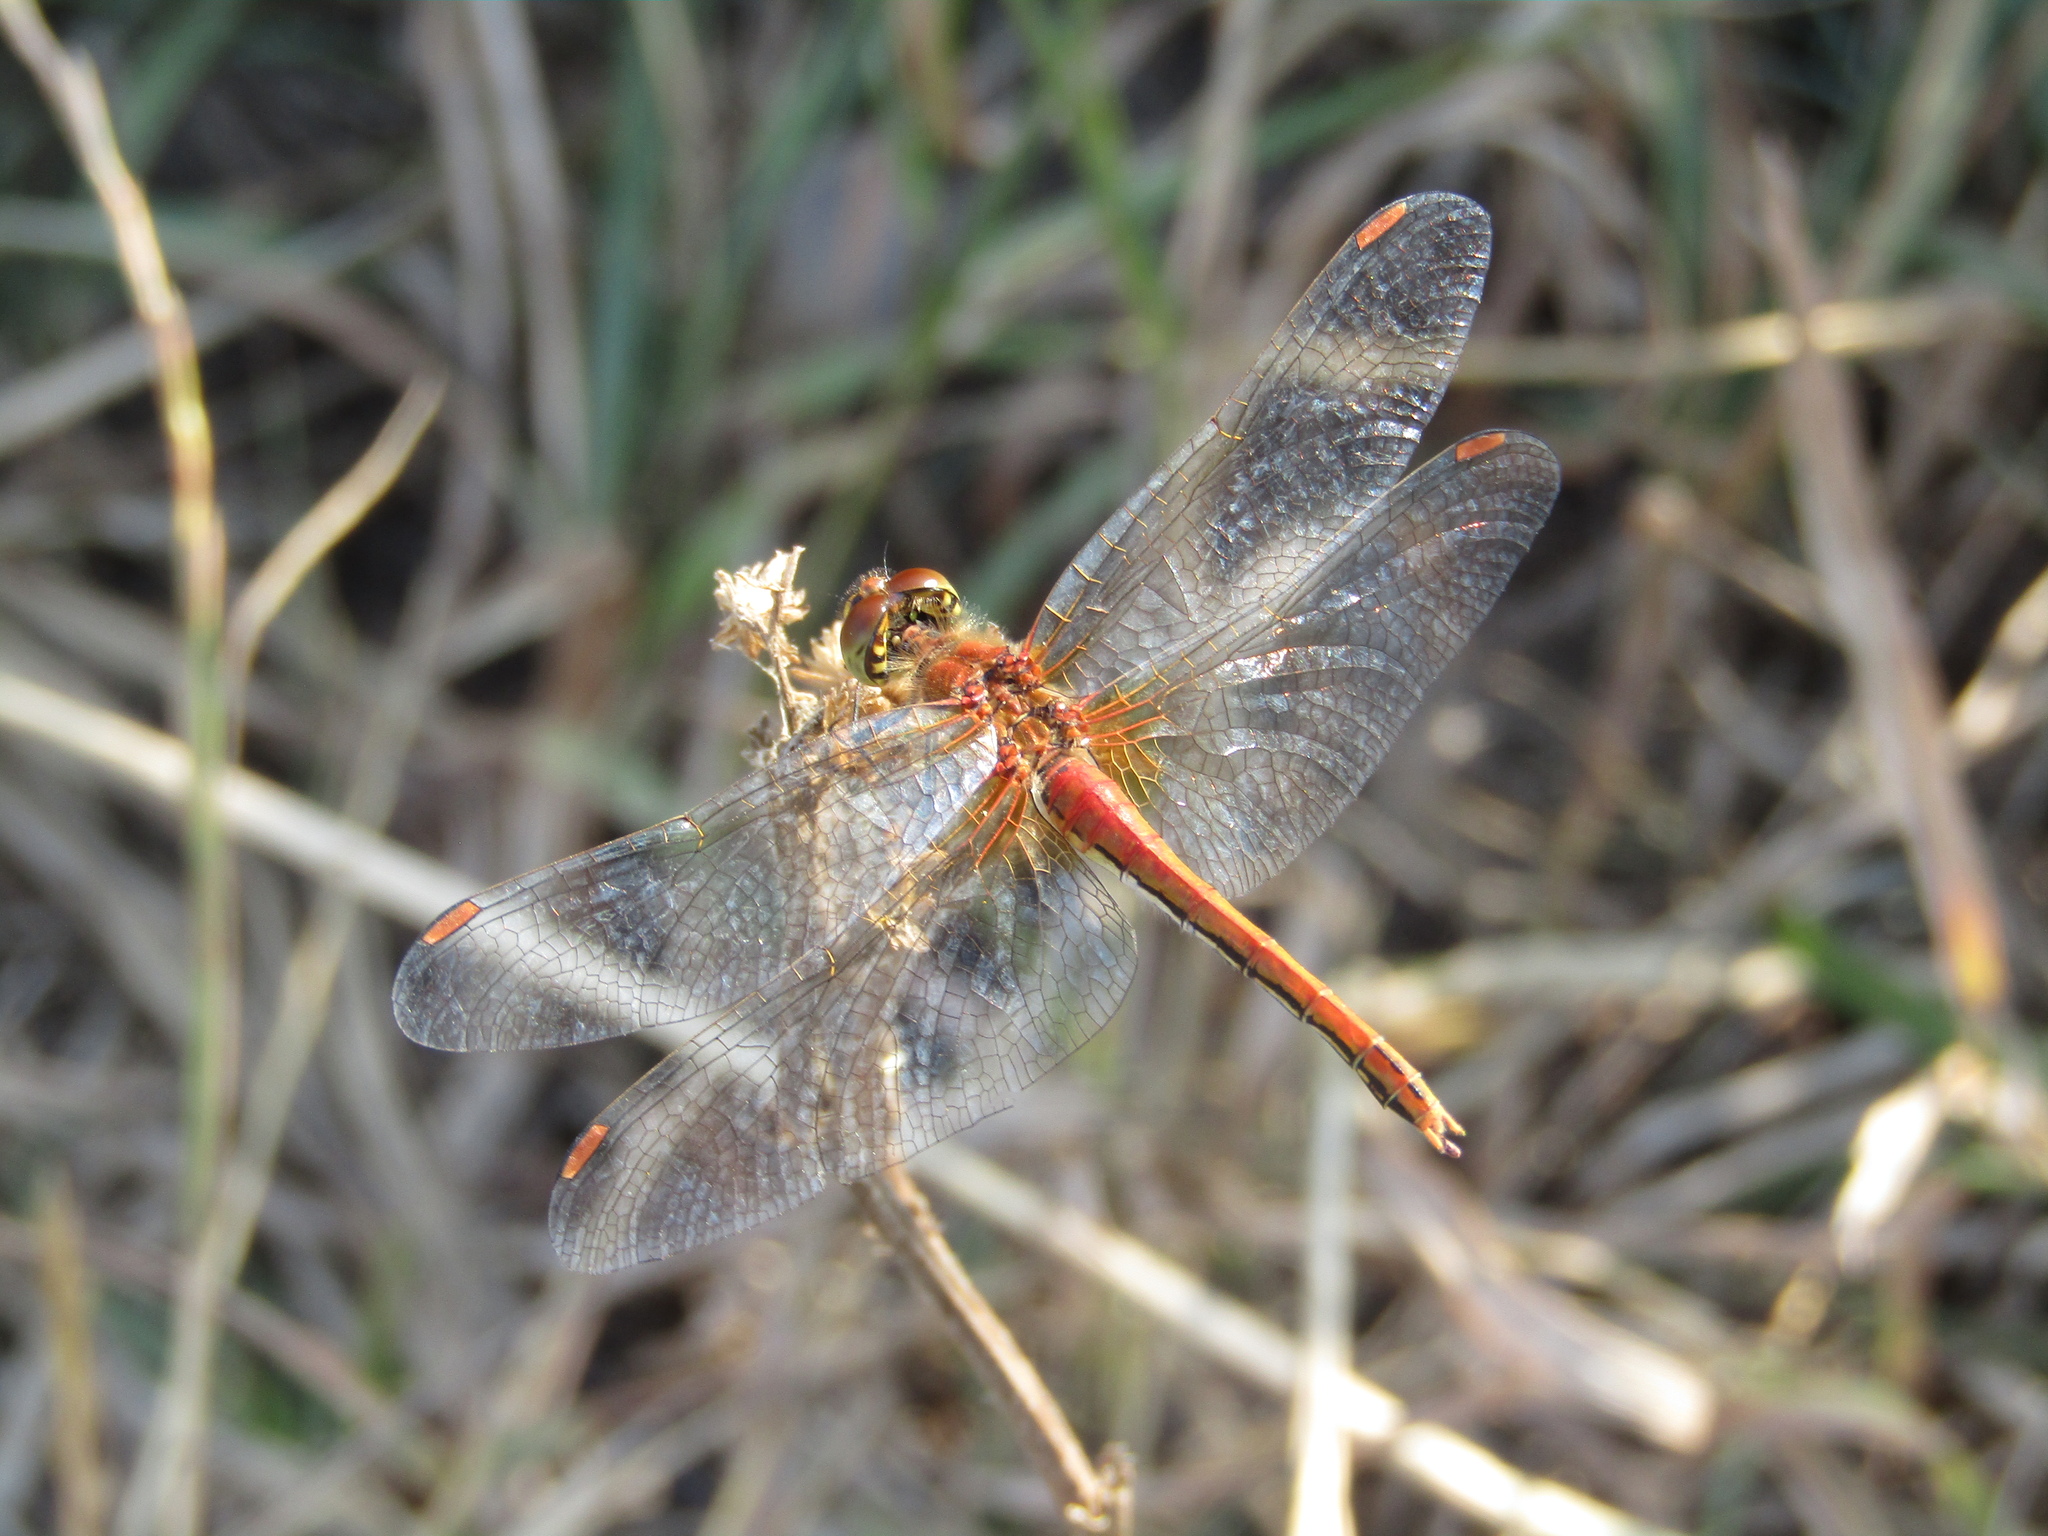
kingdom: Animalia
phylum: Arthropoda
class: Insecta
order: Odonata
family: Libellulidae
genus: Sympetrum
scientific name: Sympetrum flaveolum
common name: Yellow-winged darter
